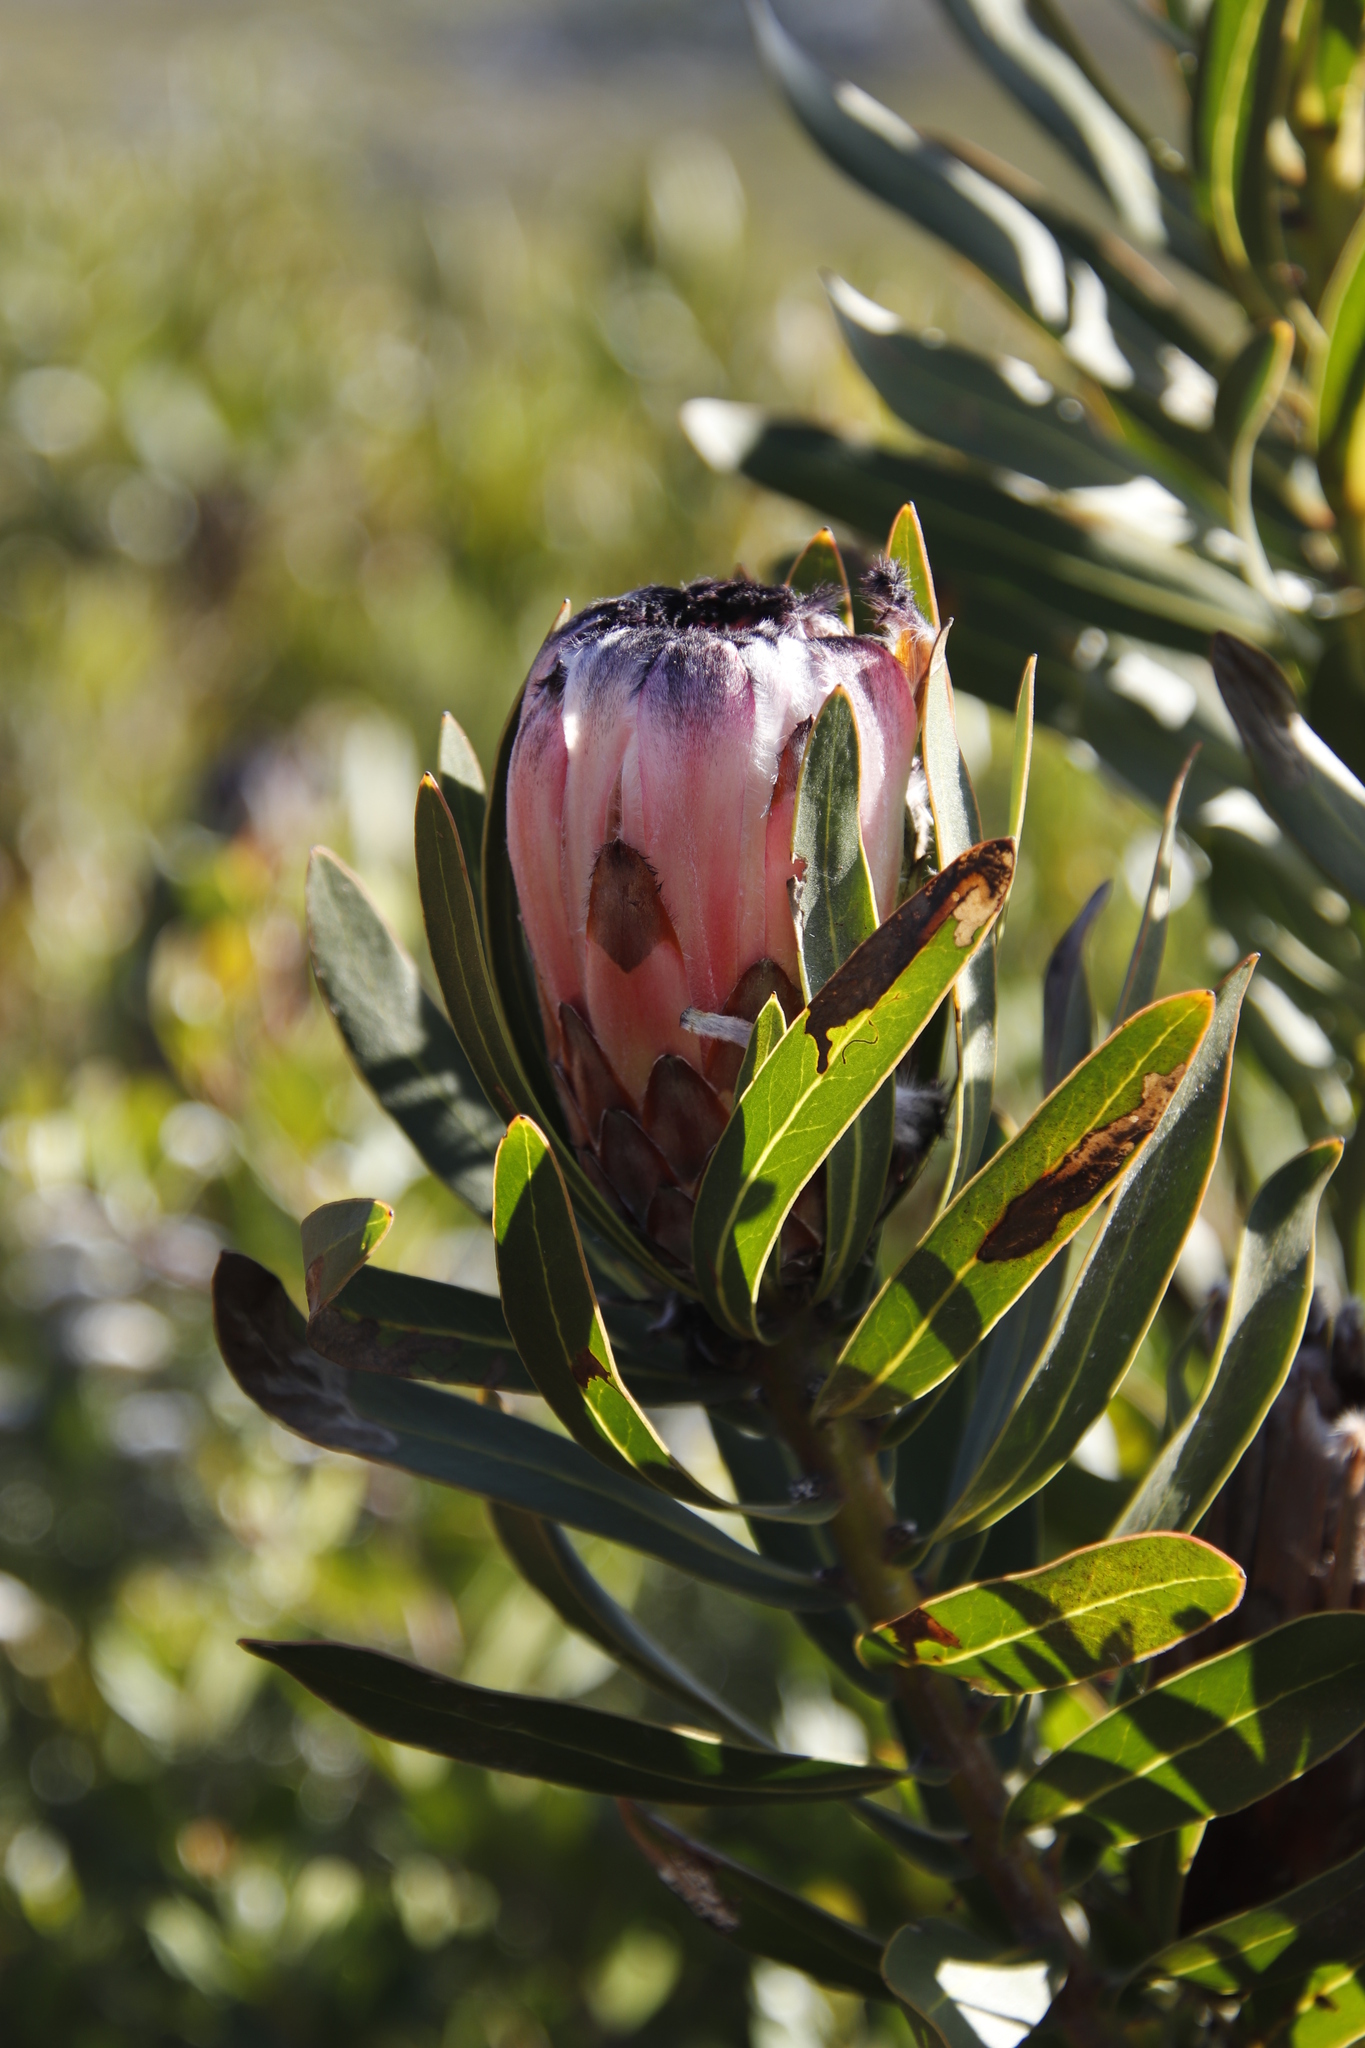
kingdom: Plantae
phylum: Tracheophyta
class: Magnoliopsida
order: Proteales
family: Proteaceae
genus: Protea
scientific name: Protea
